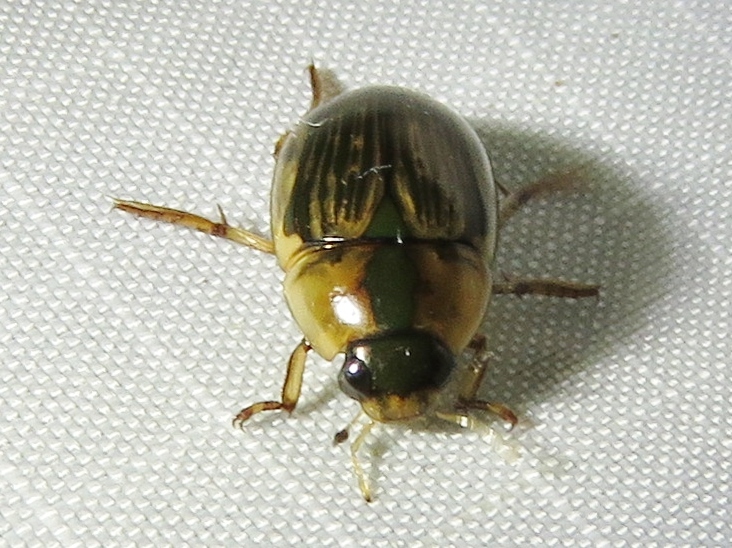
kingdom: Animalia
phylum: Arthropoda
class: Insecta
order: Coleoptera
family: Hydrophilidae
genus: Tropisternus
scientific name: Tropisternus collaris
